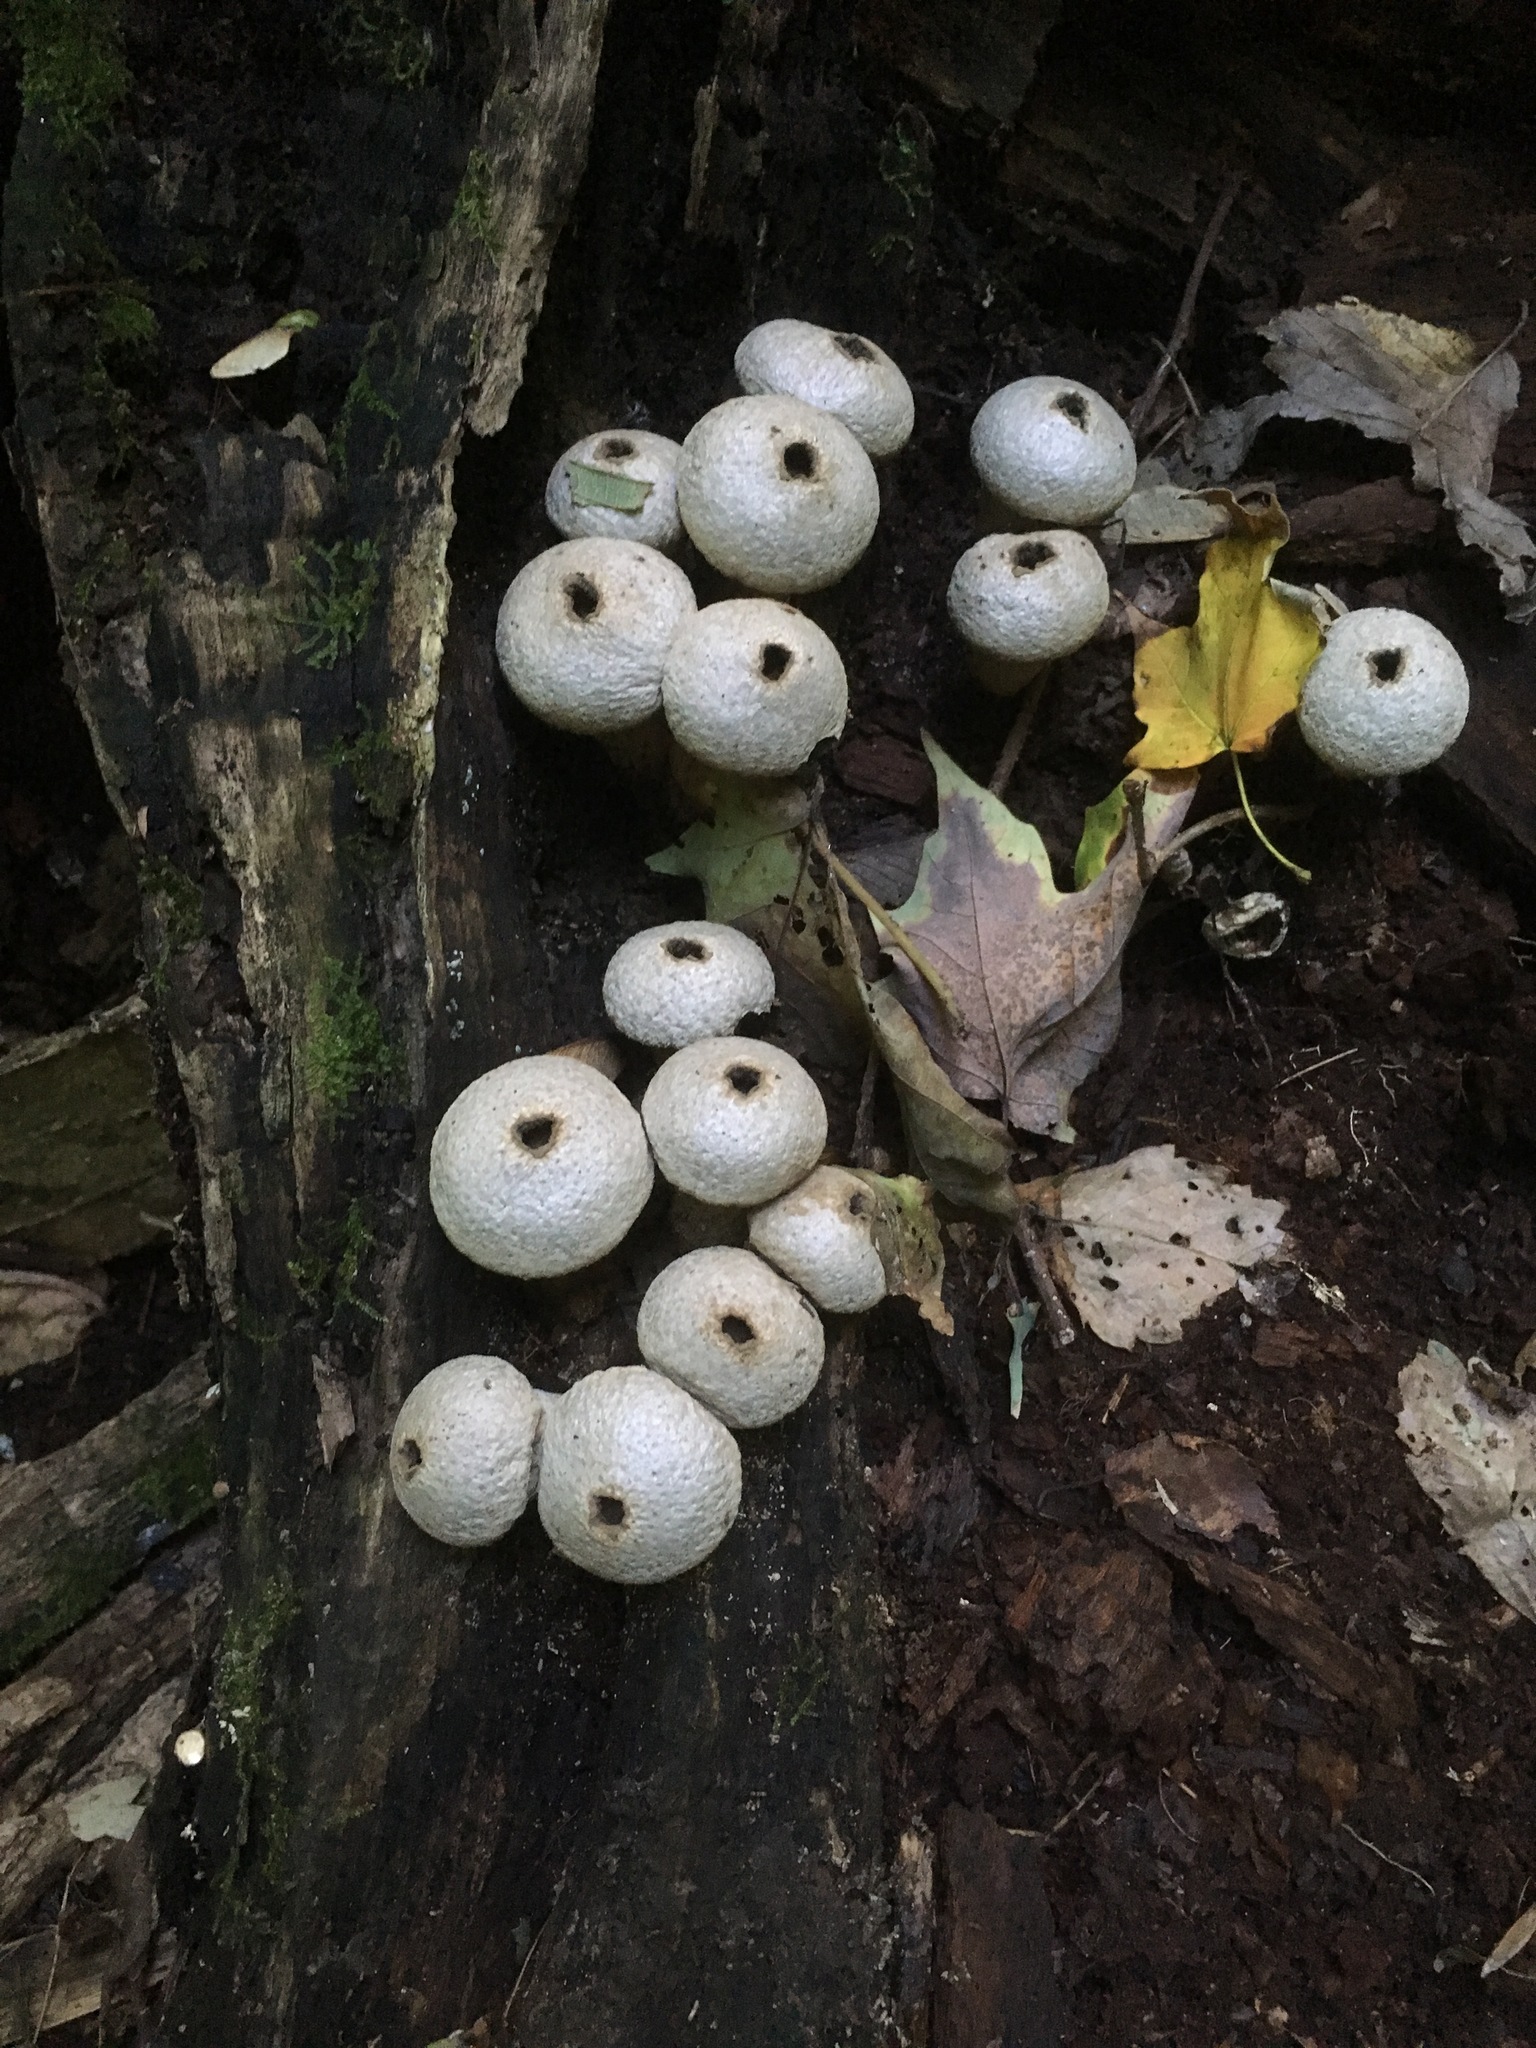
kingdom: Fungi
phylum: Basidiomycota
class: Agaricomycetes
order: Agaricales
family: Lycoperdaceae
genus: Apioperdon
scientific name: Apioperdon pyriforme
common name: Pear-shaped puffball
